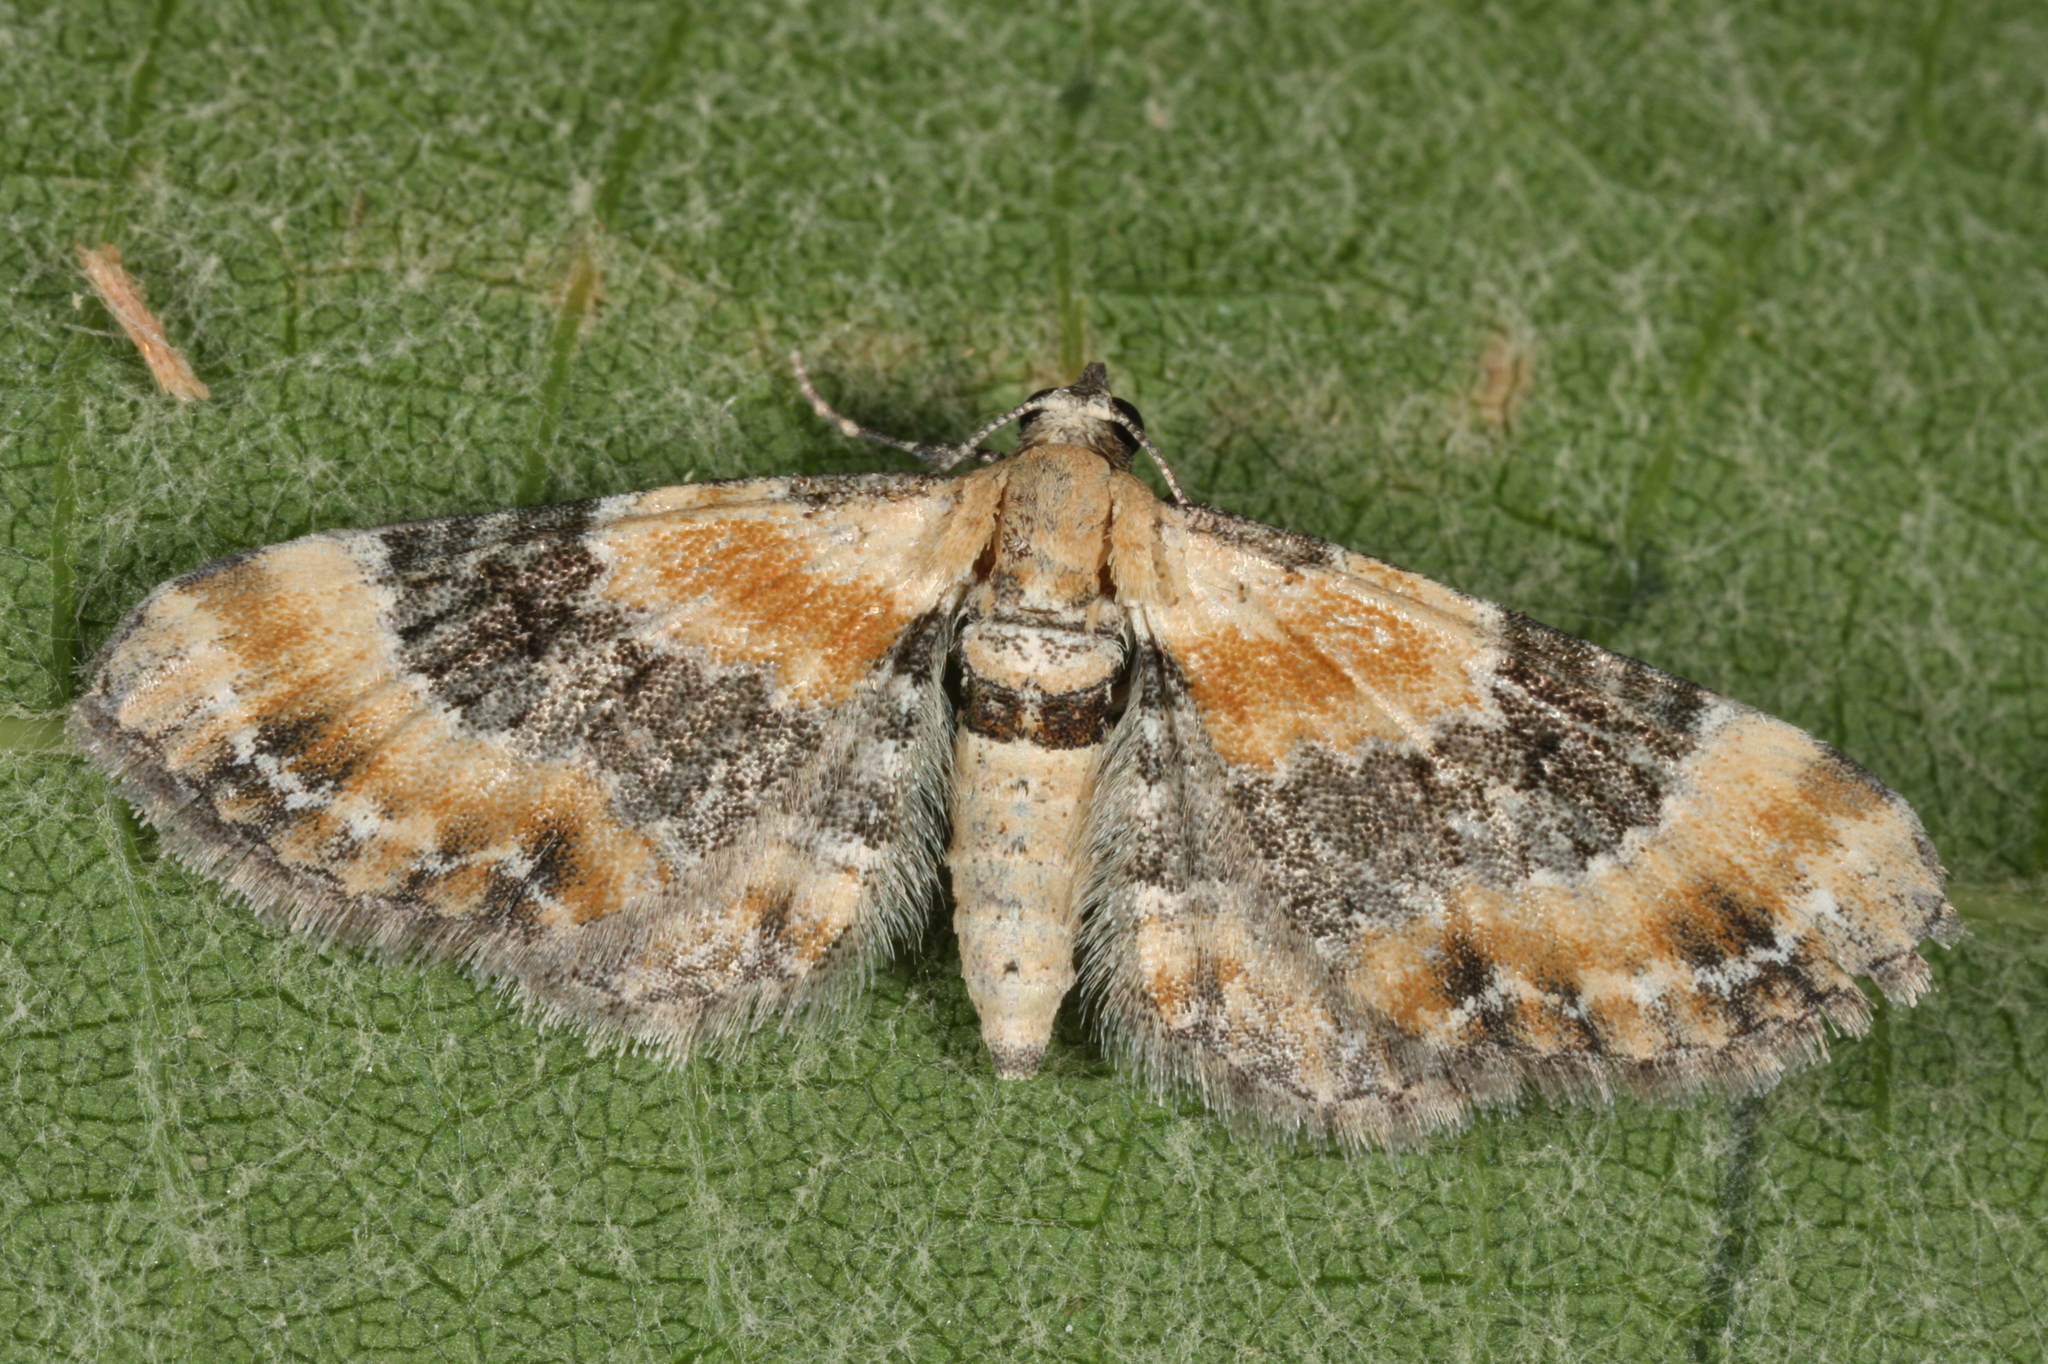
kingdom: Animalia
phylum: Arthropoda
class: Insecta
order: Lepidoptera
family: Geometridae
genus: Eupithecia
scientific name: Eupithecia linariata
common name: Toadflax pug
